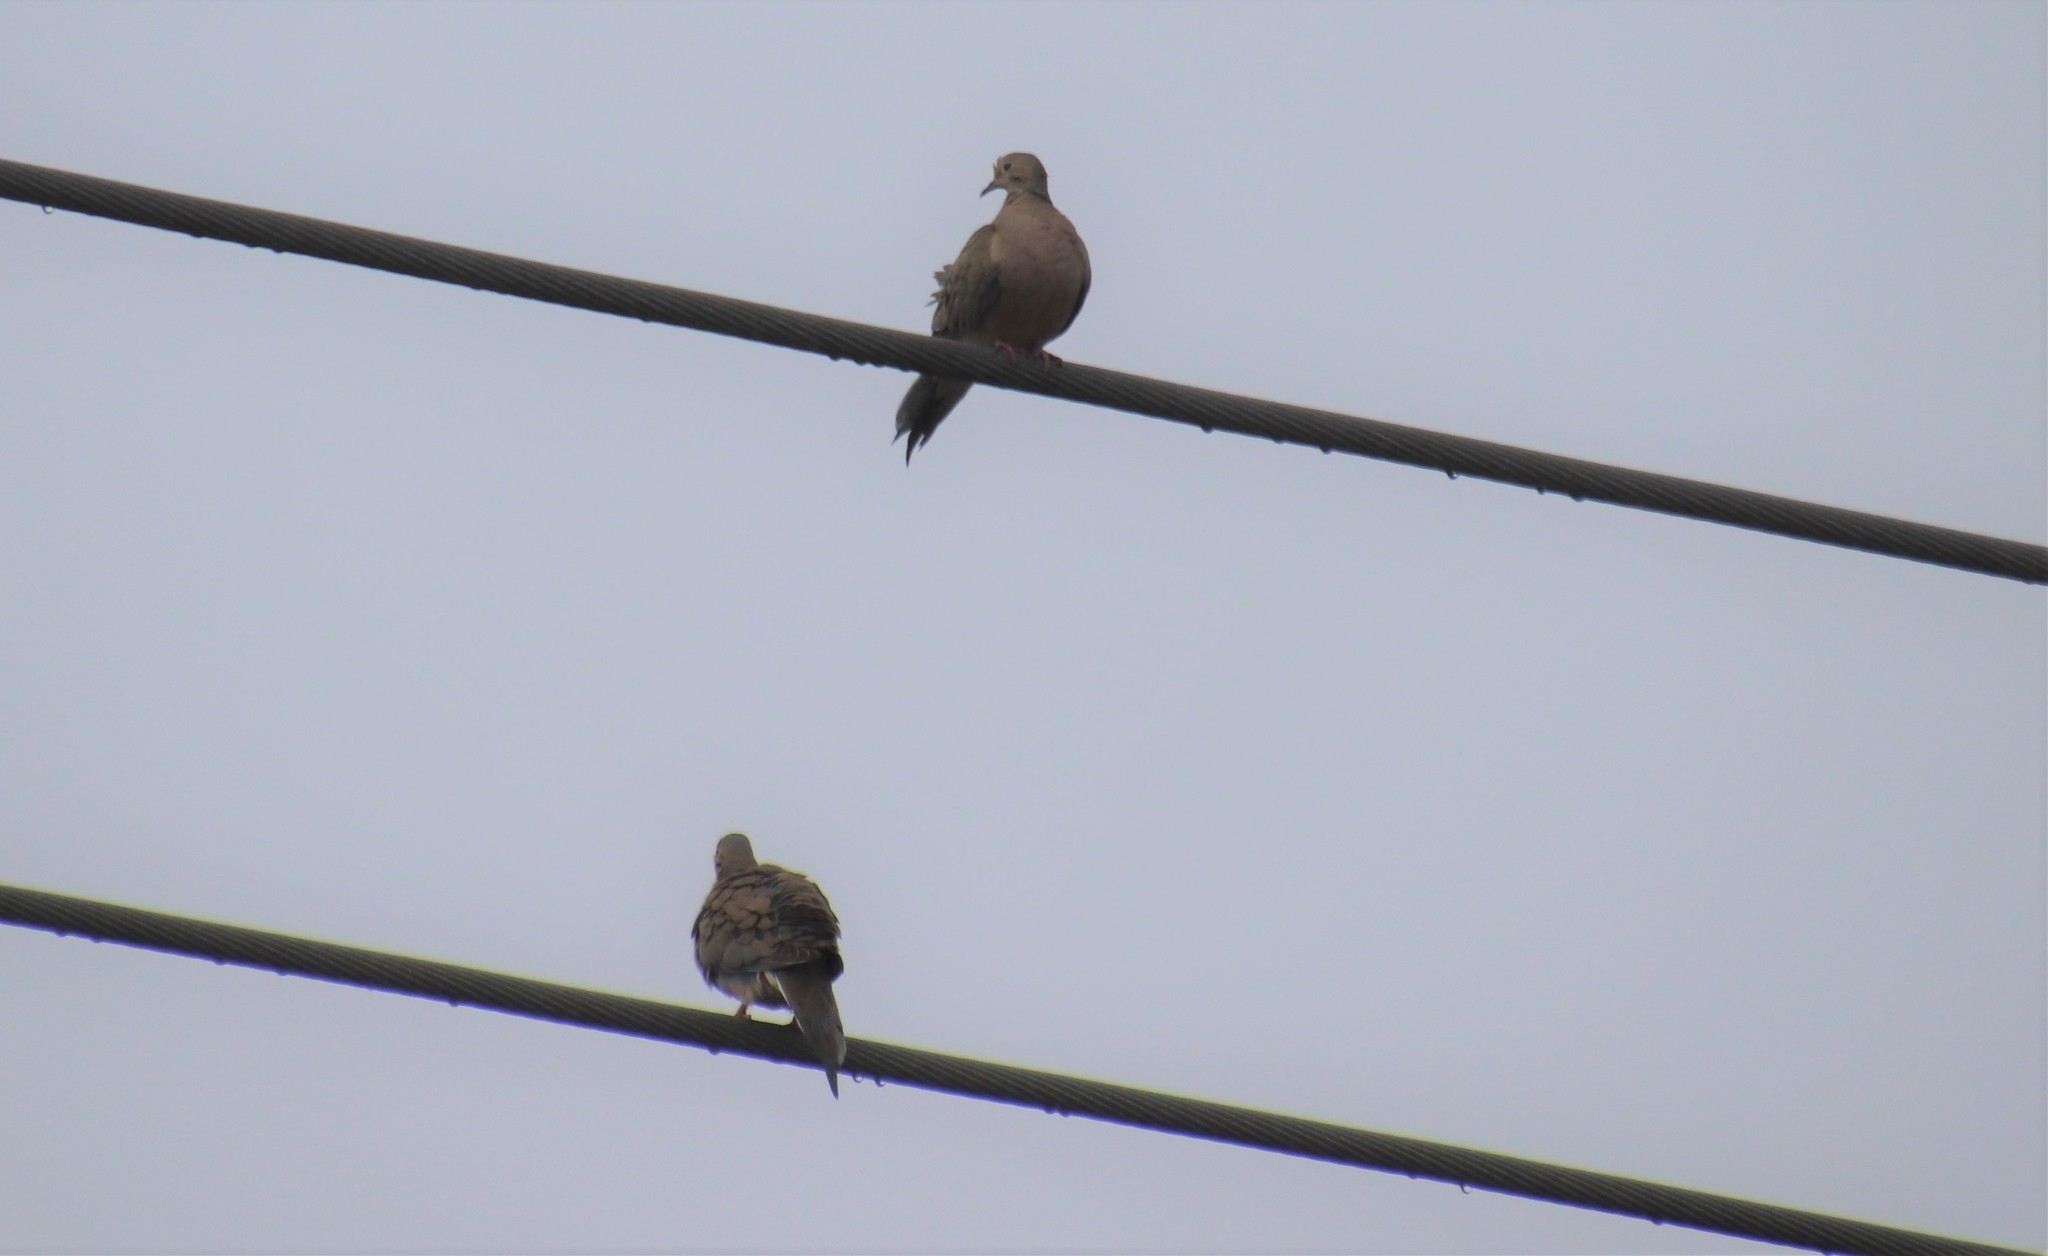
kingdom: Animalia
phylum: Chordata
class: Aves
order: Columbiformes
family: Columbidae
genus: Zenaida
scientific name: Zenaida macroura
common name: Mourning dove
